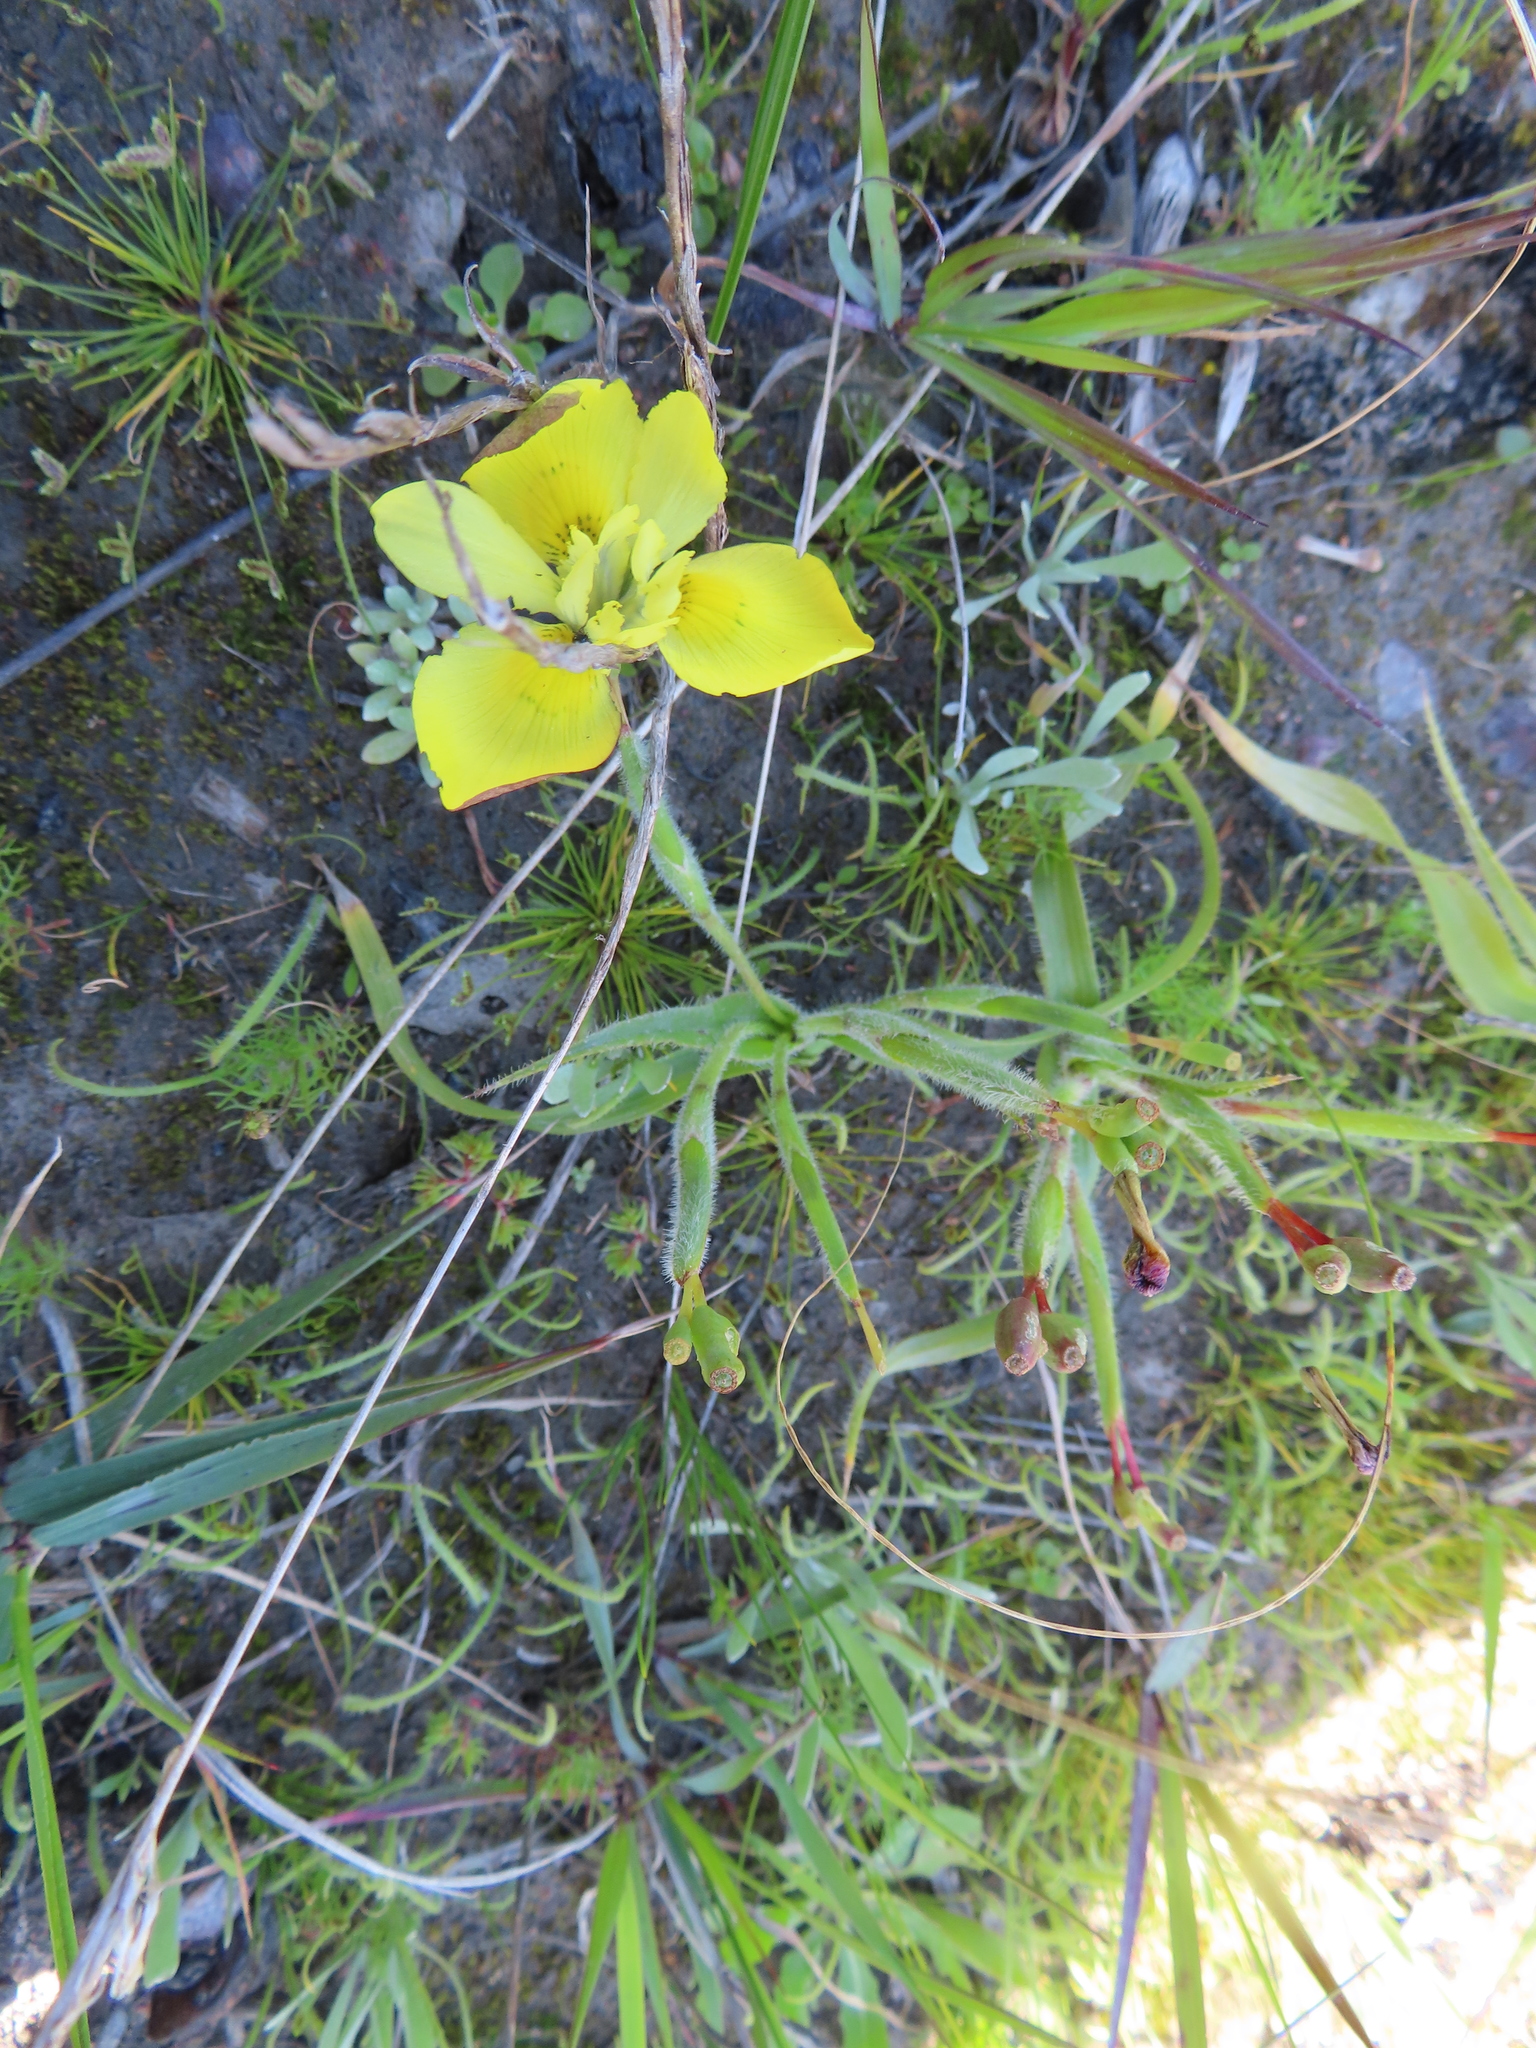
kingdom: Plantae
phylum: Tracheophyta
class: Liliopsida
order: Asparagales
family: Iridaceae
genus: Moraea
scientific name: Moraea papilionacea
